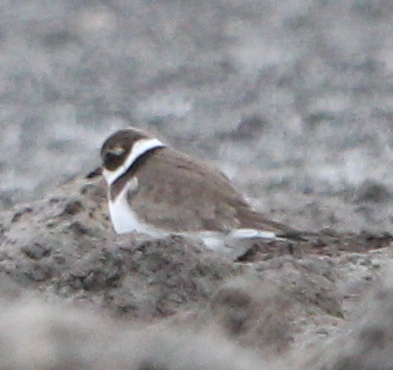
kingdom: Animalia
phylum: Chordata
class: Aves
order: Charadriiformes
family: Charadriidae
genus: Charadrius
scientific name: Charadrius hiaticula
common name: Common ringed plover
